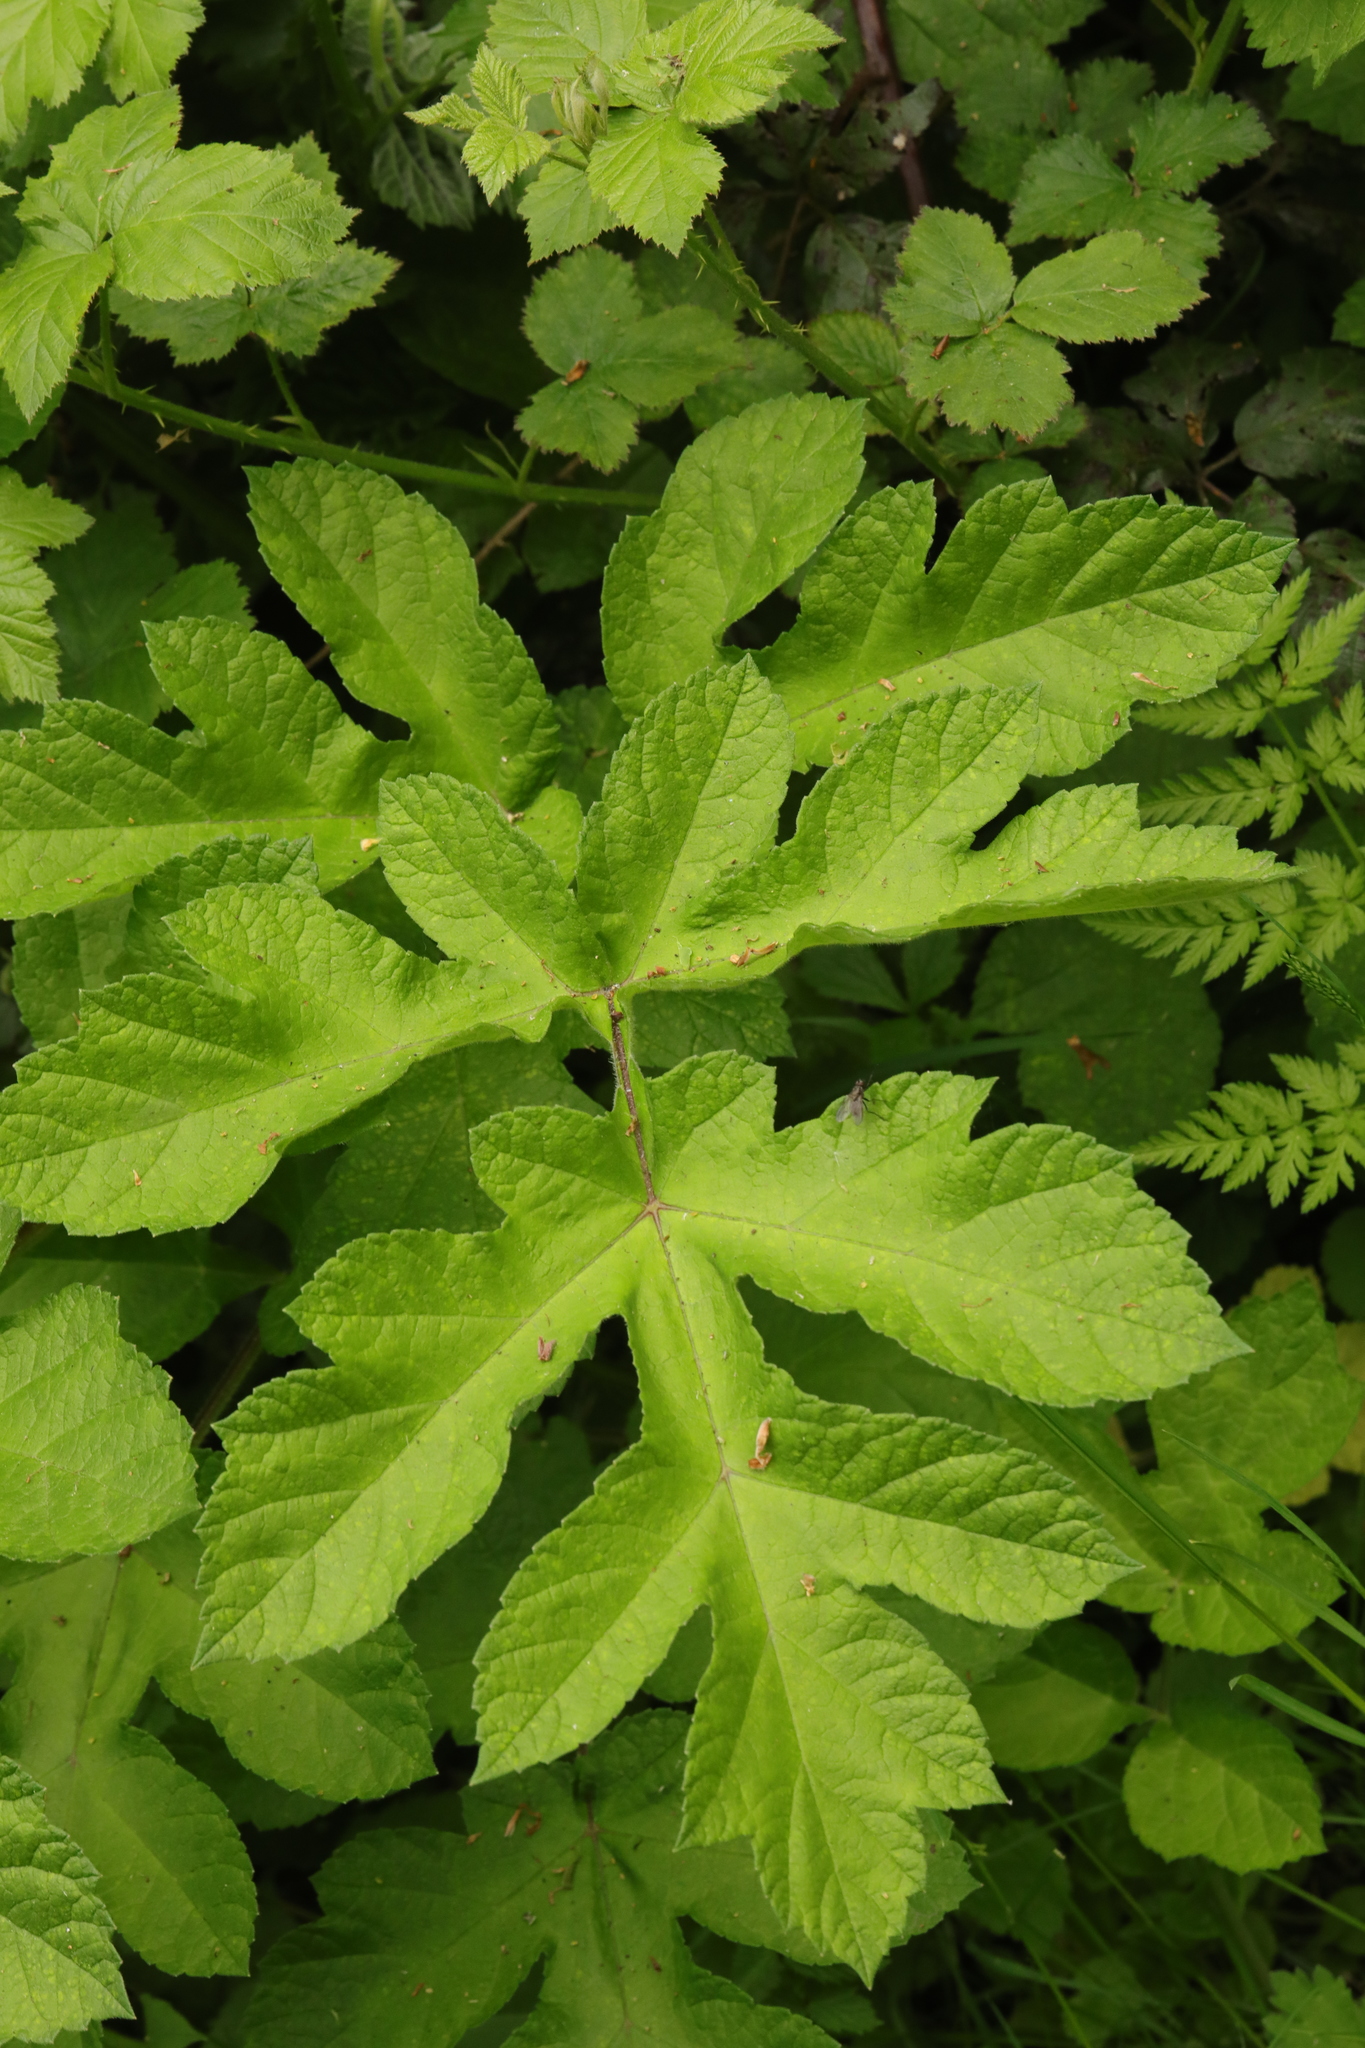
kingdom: Plantae
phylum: Tracheophyta
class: Magnoliopsida
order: Apiales
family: Apiaceae
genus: Heracleum
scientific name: Heracleum sphondylium
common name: Hogweed
